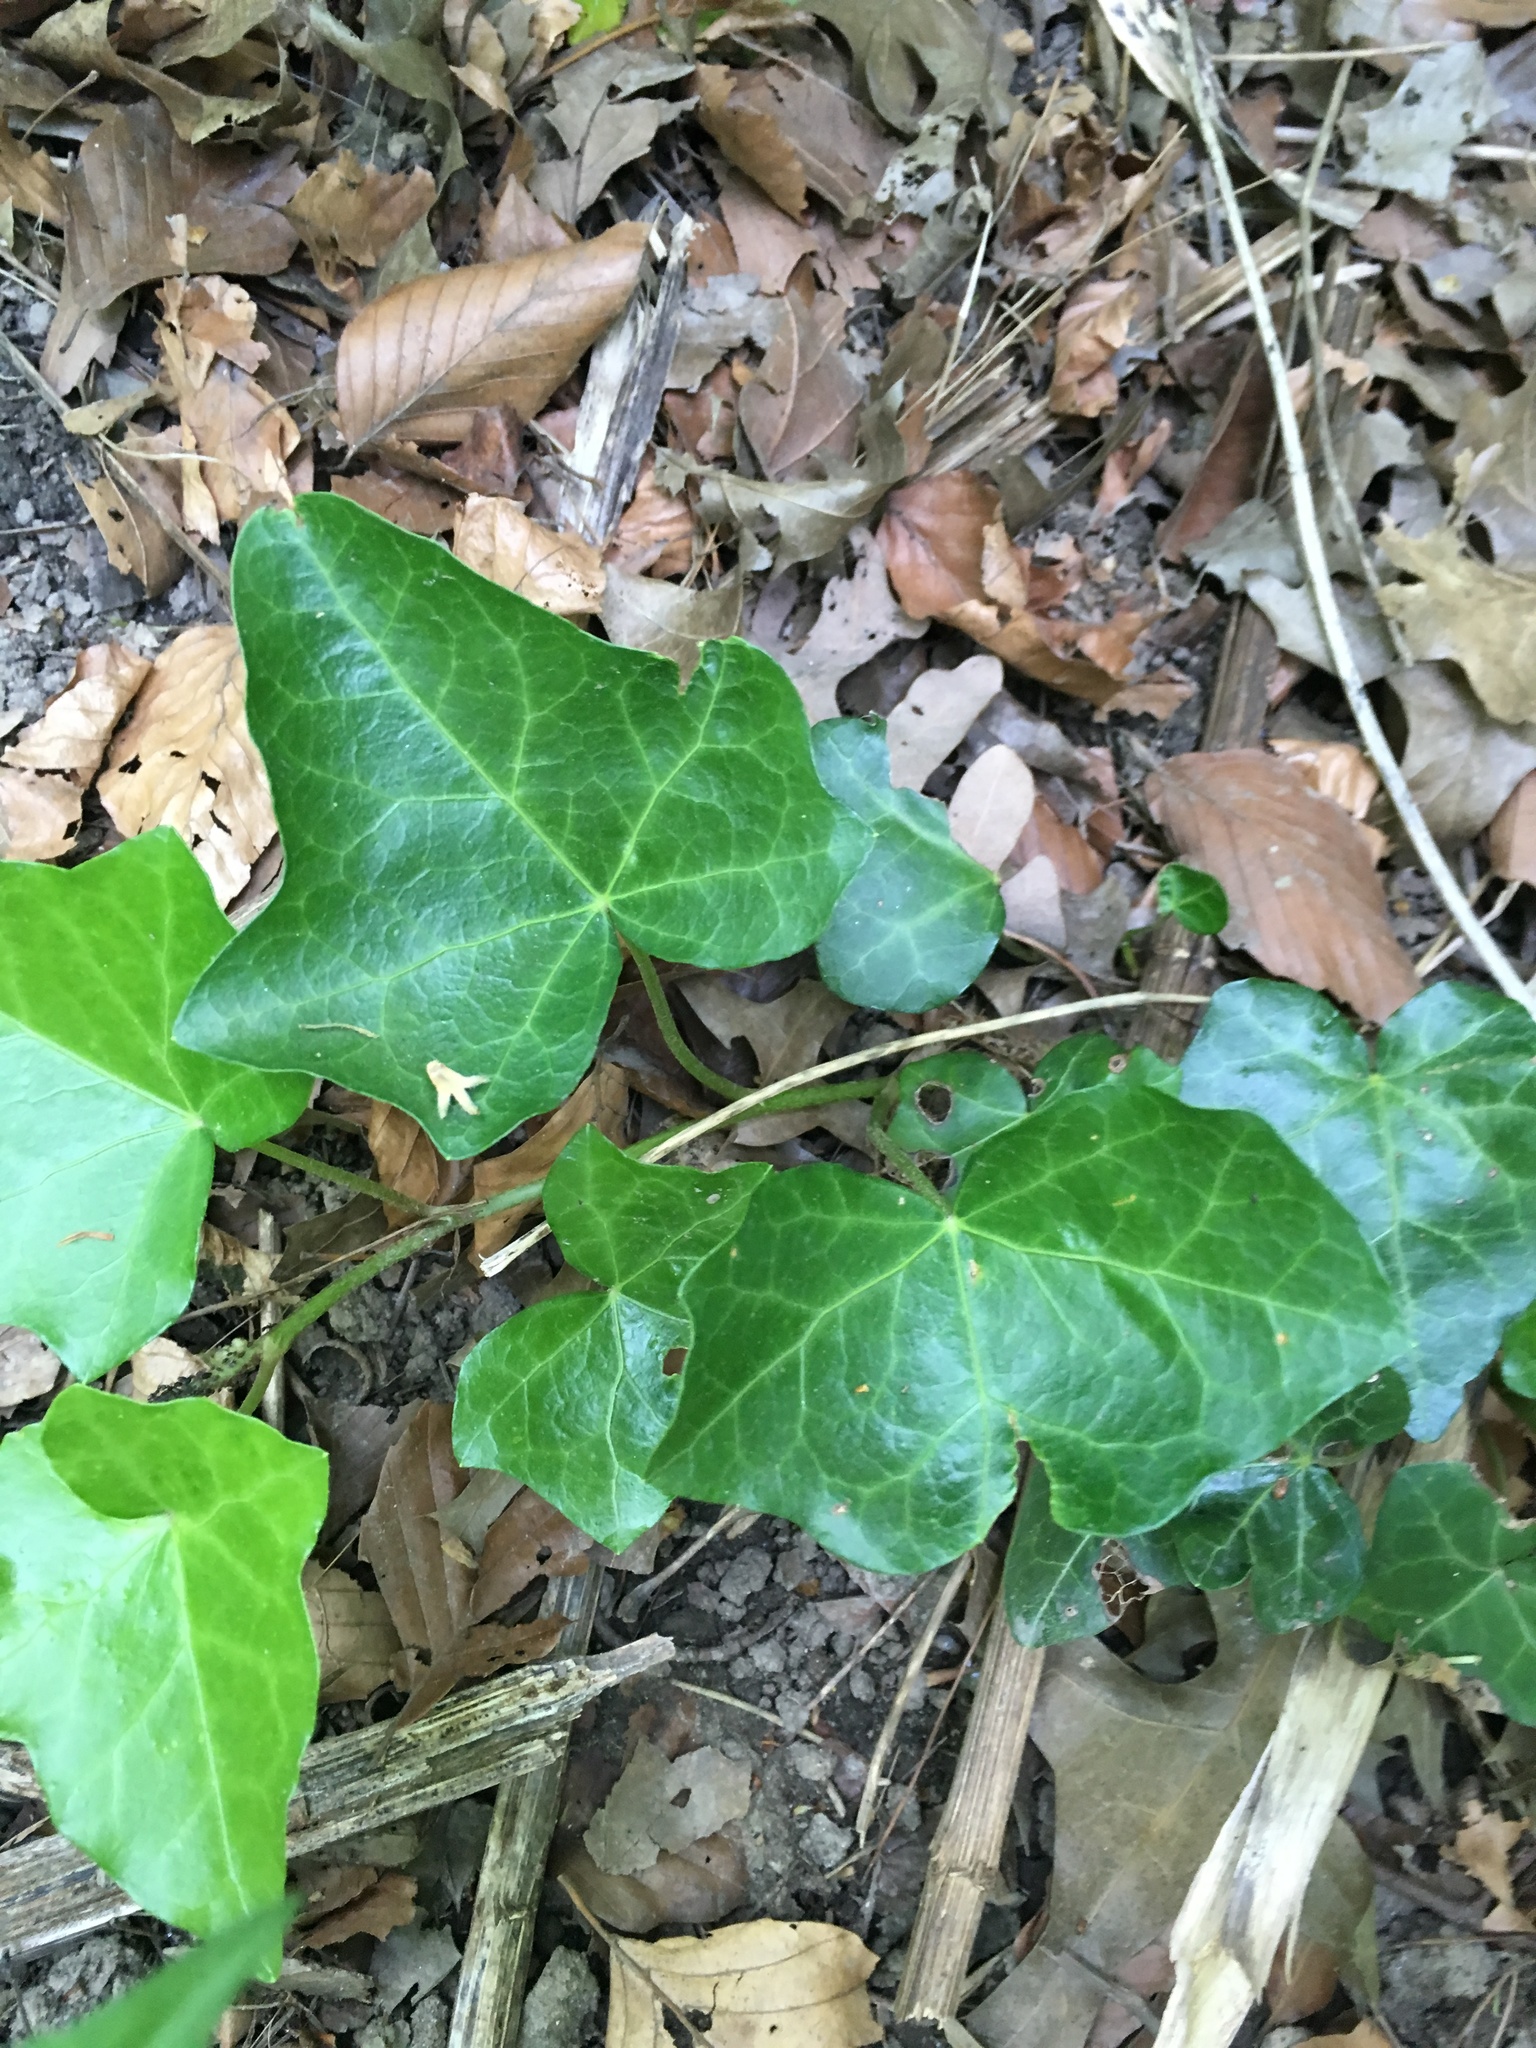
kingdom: Plantae
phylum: Tracheophyta
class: Magnoliopsida
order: Apiales
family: Araliaceae
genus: Hedera
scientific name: Hedera helix
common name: Ivy
